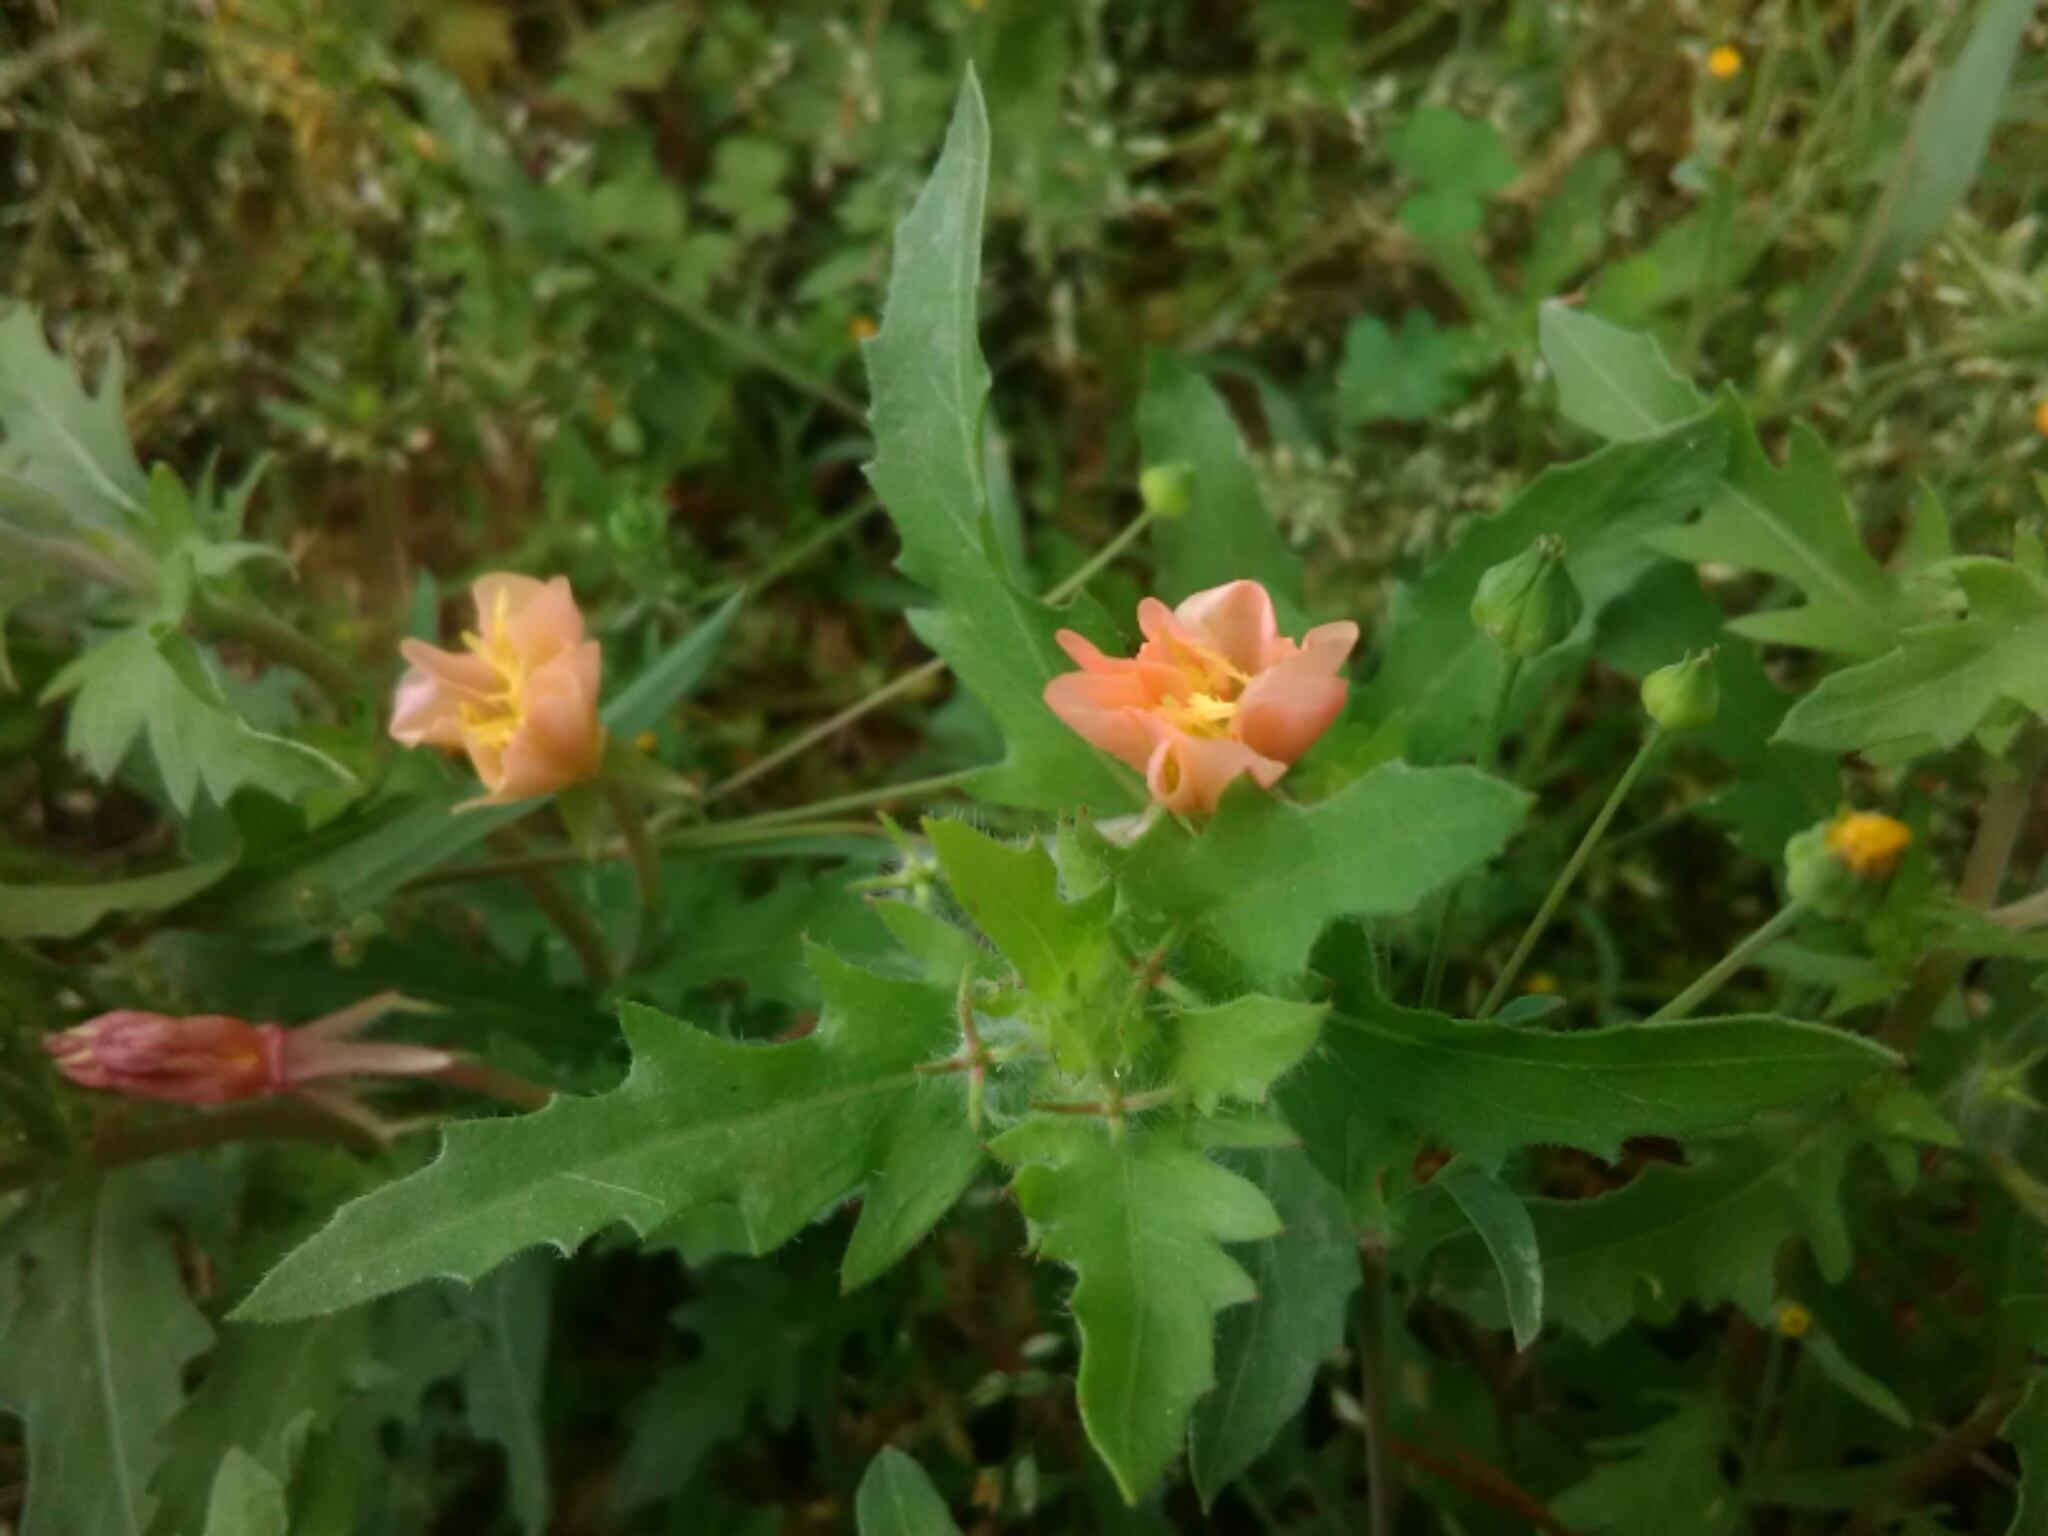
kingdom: Plantae
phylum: Tracheophyta
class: Magnoliopsida
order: Myrtales
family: Onagraceae
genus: Oenothera
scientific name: Oenothera laciniata
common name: Cut-leaved evening-primrose
